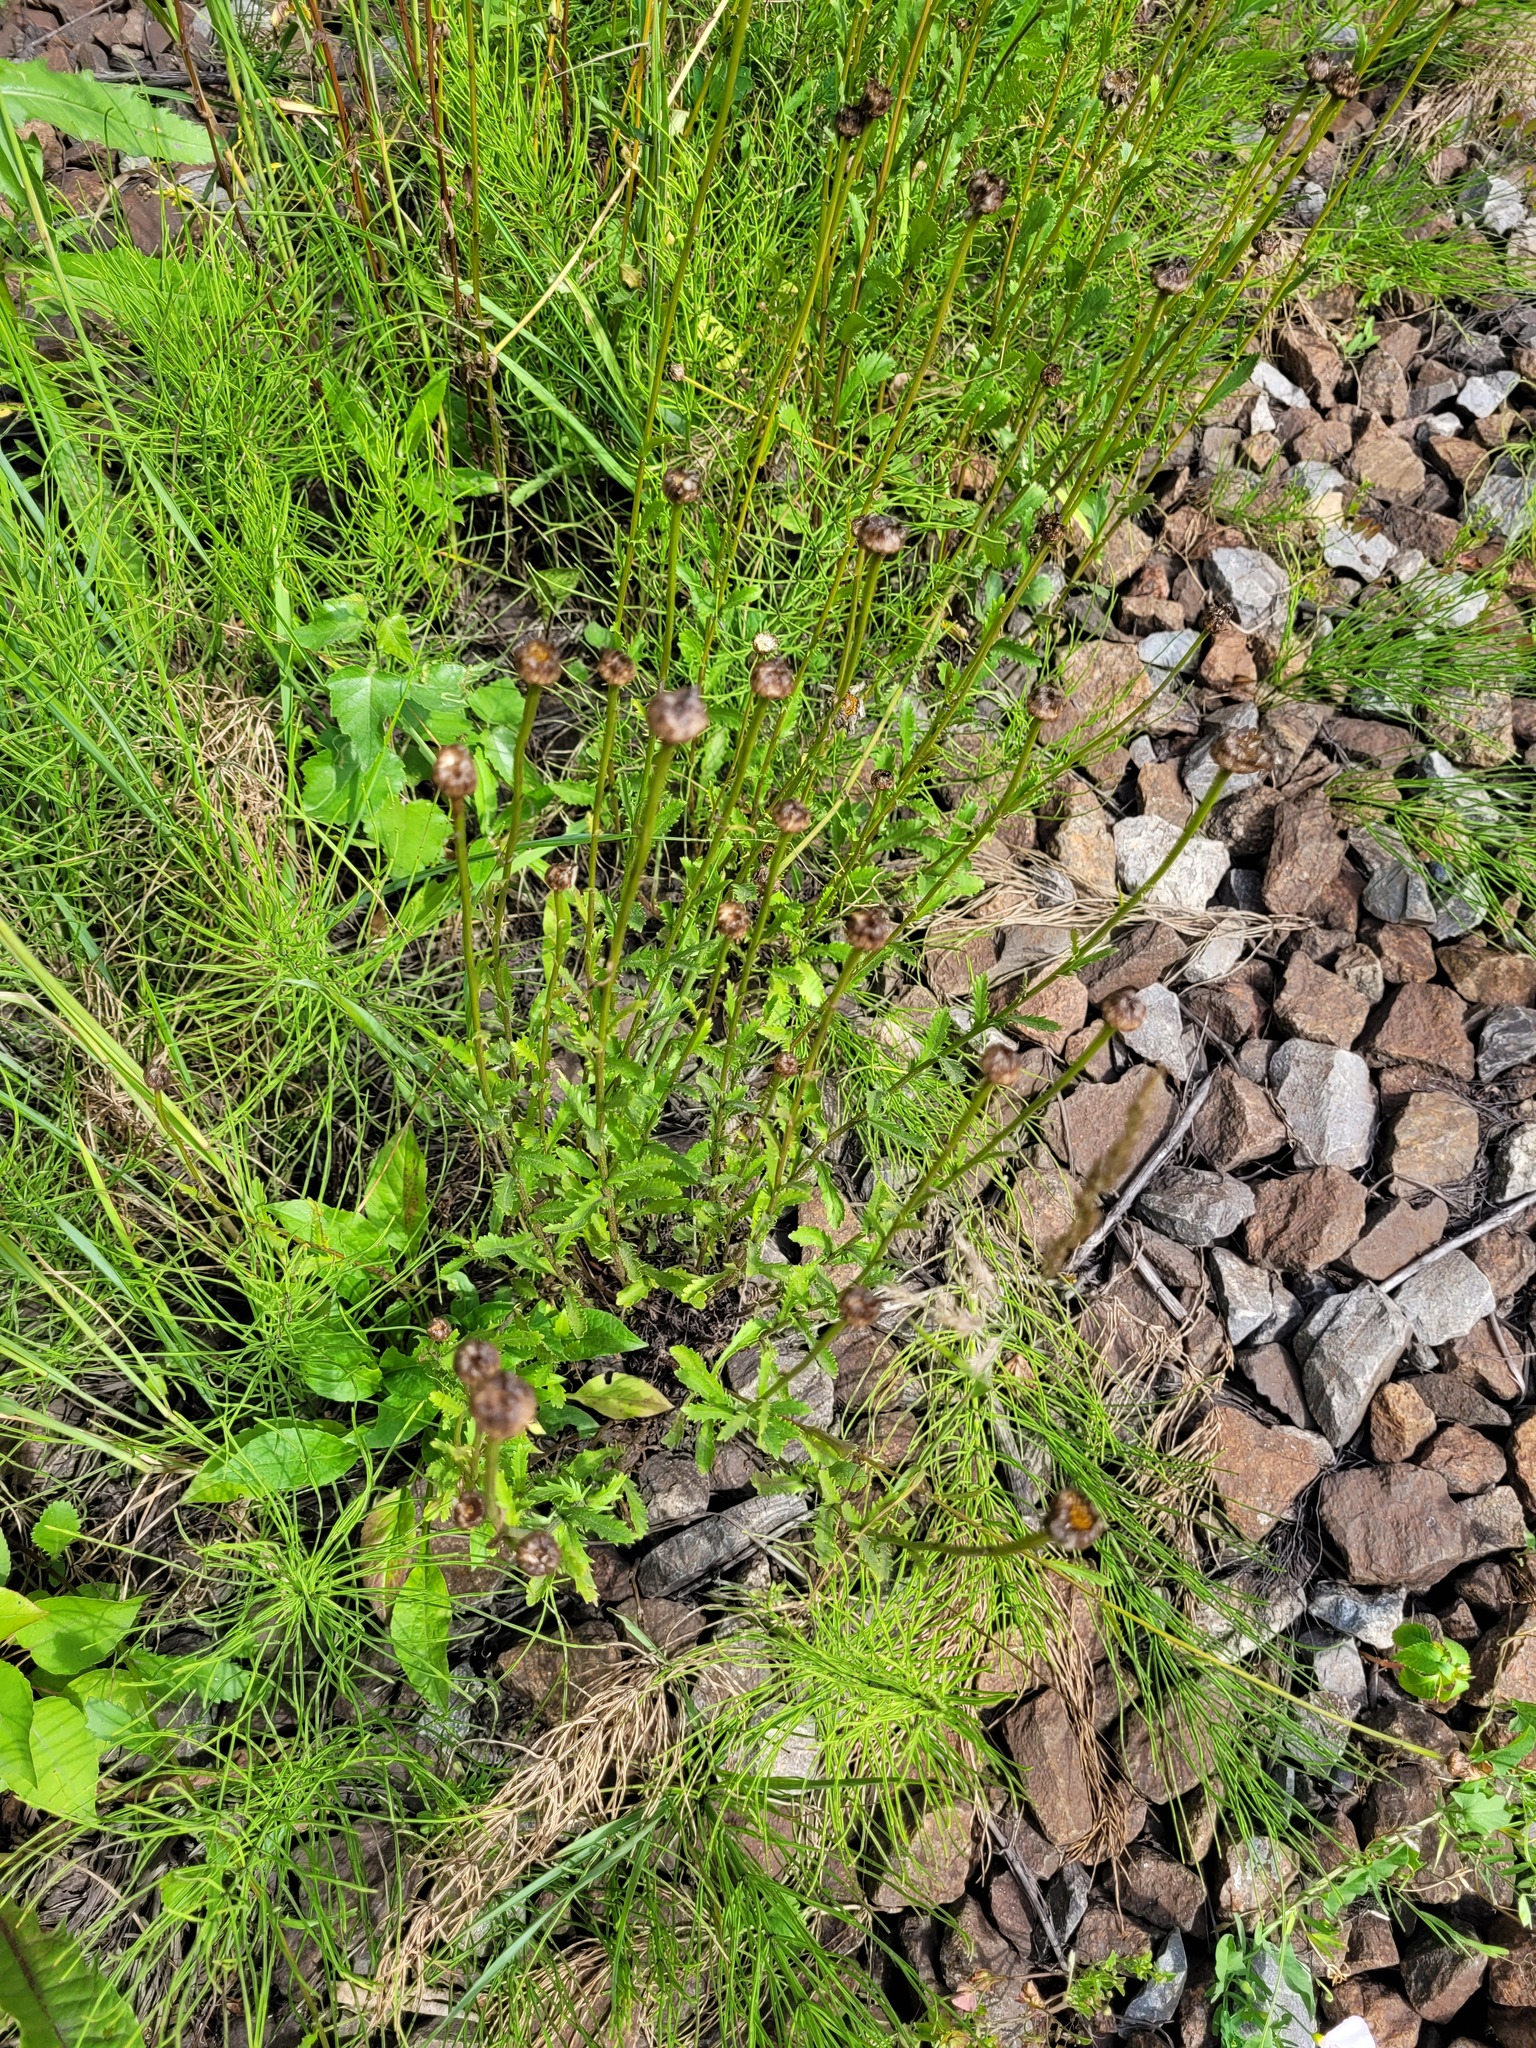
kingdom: Plantae
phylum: Tracheophyta
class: Magnoliopsida
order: Asterales
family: Asteraceae
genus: Leucanthemum
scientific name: Leucanthemum vulgare
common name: Oxeye daisy
